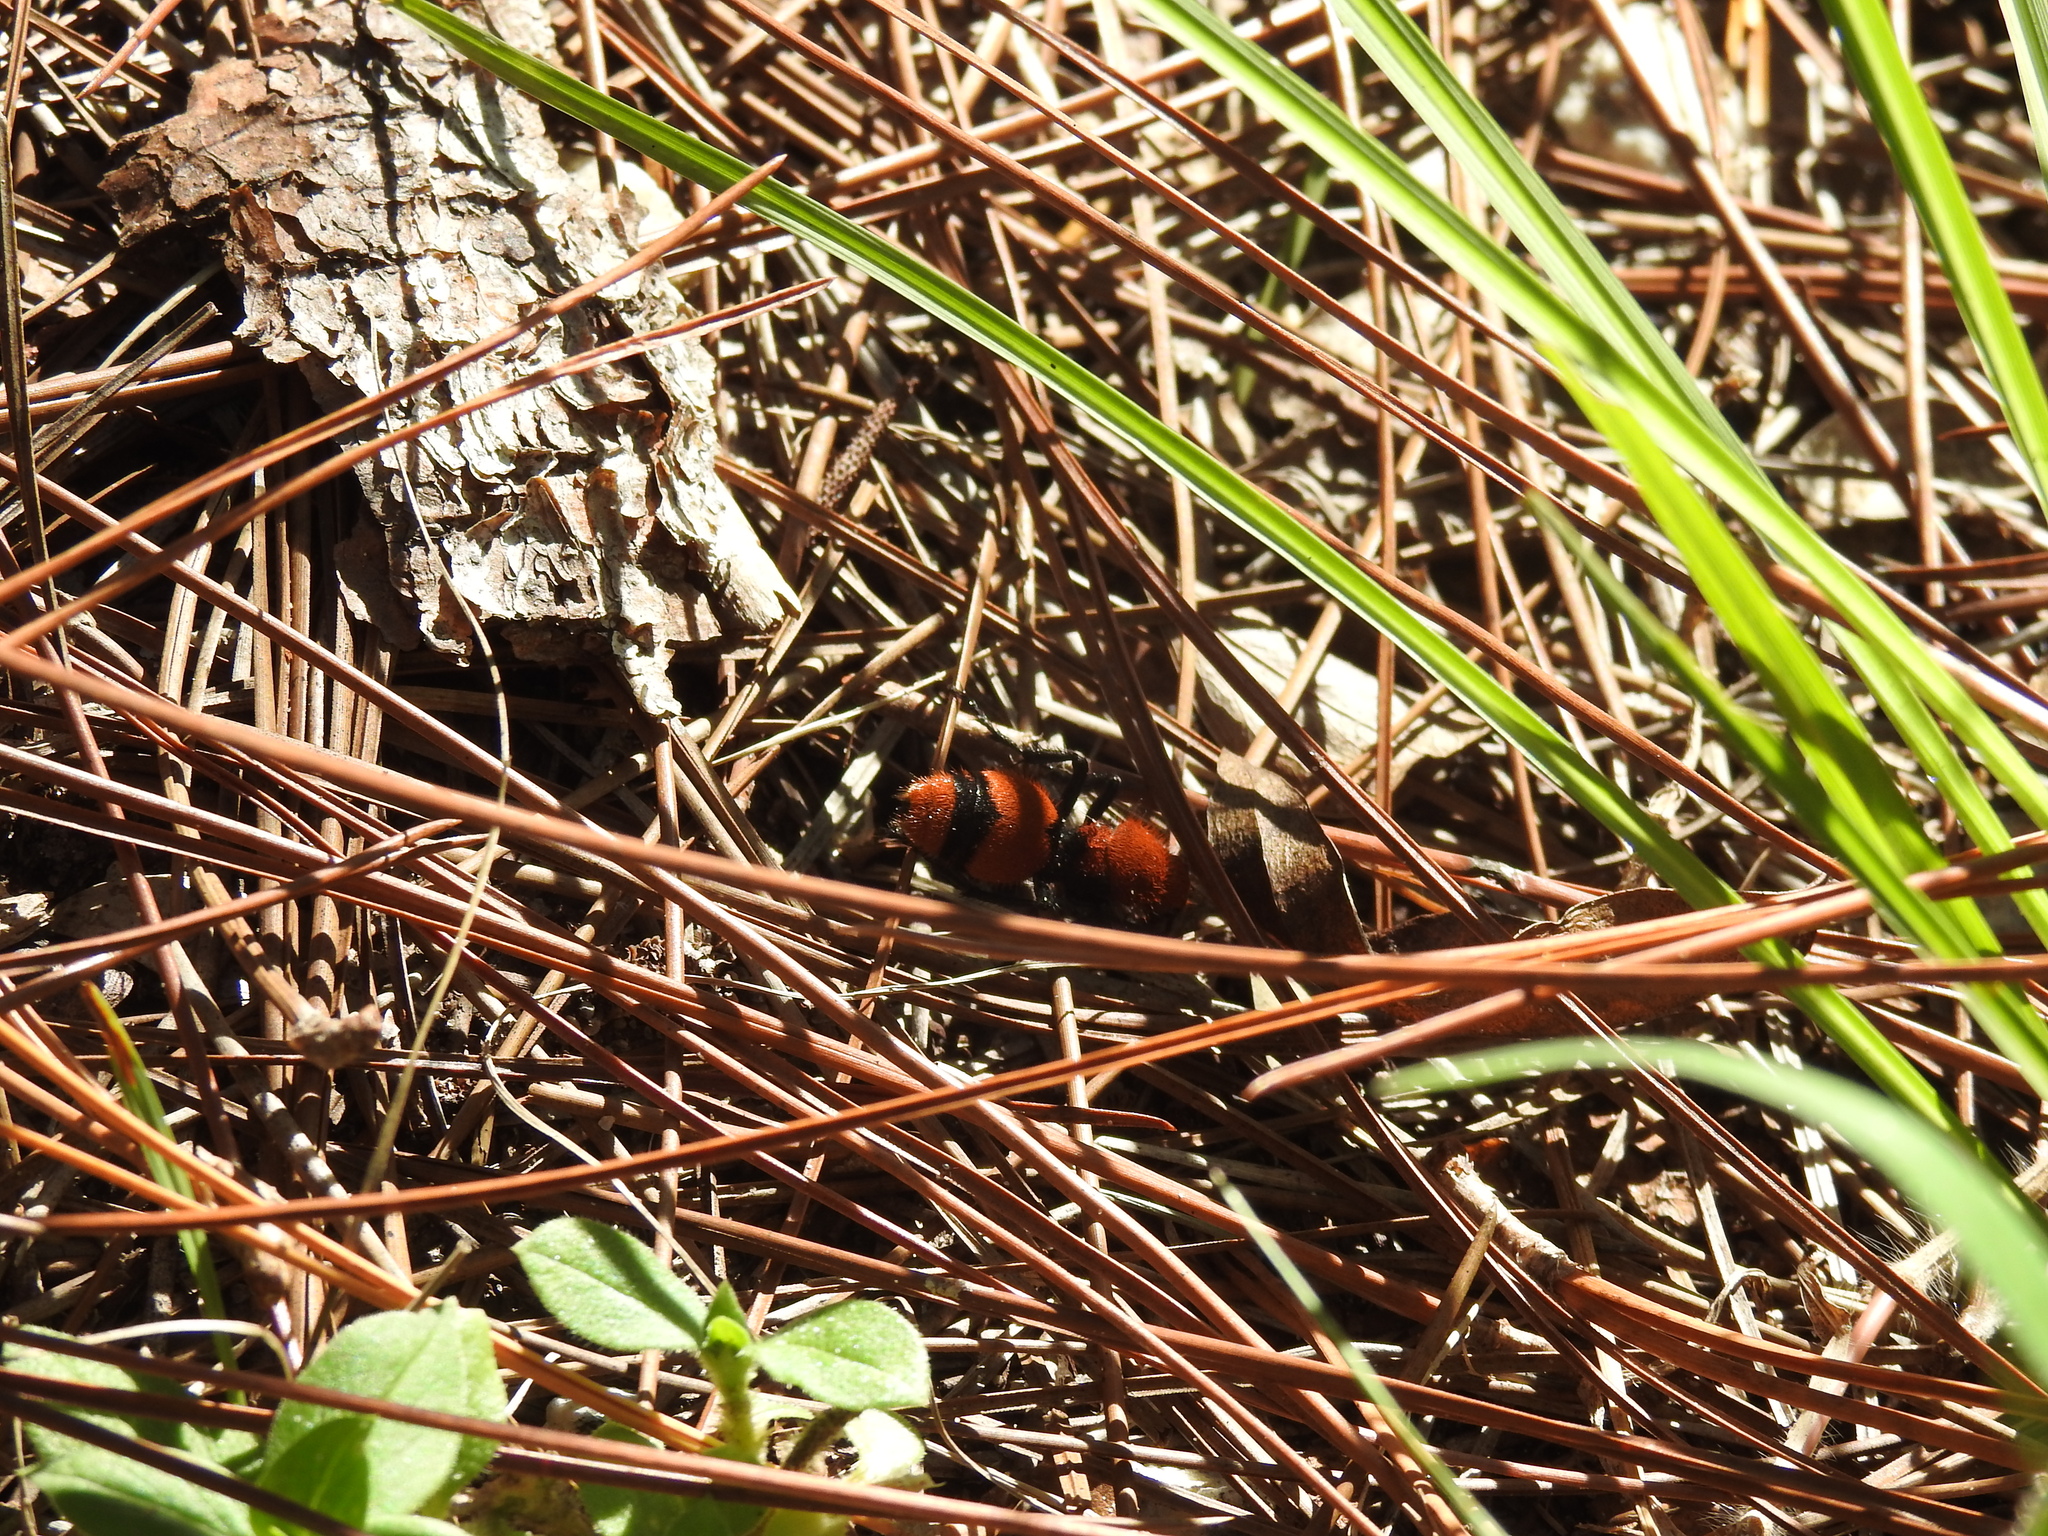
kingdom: Animalia
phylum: Arthropoda
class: Insecta
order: Hymenoptera
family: Mutillidae
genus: Dasymutilla
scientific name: Dasymutilla occidentalis
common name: Common eastern velvet ant
